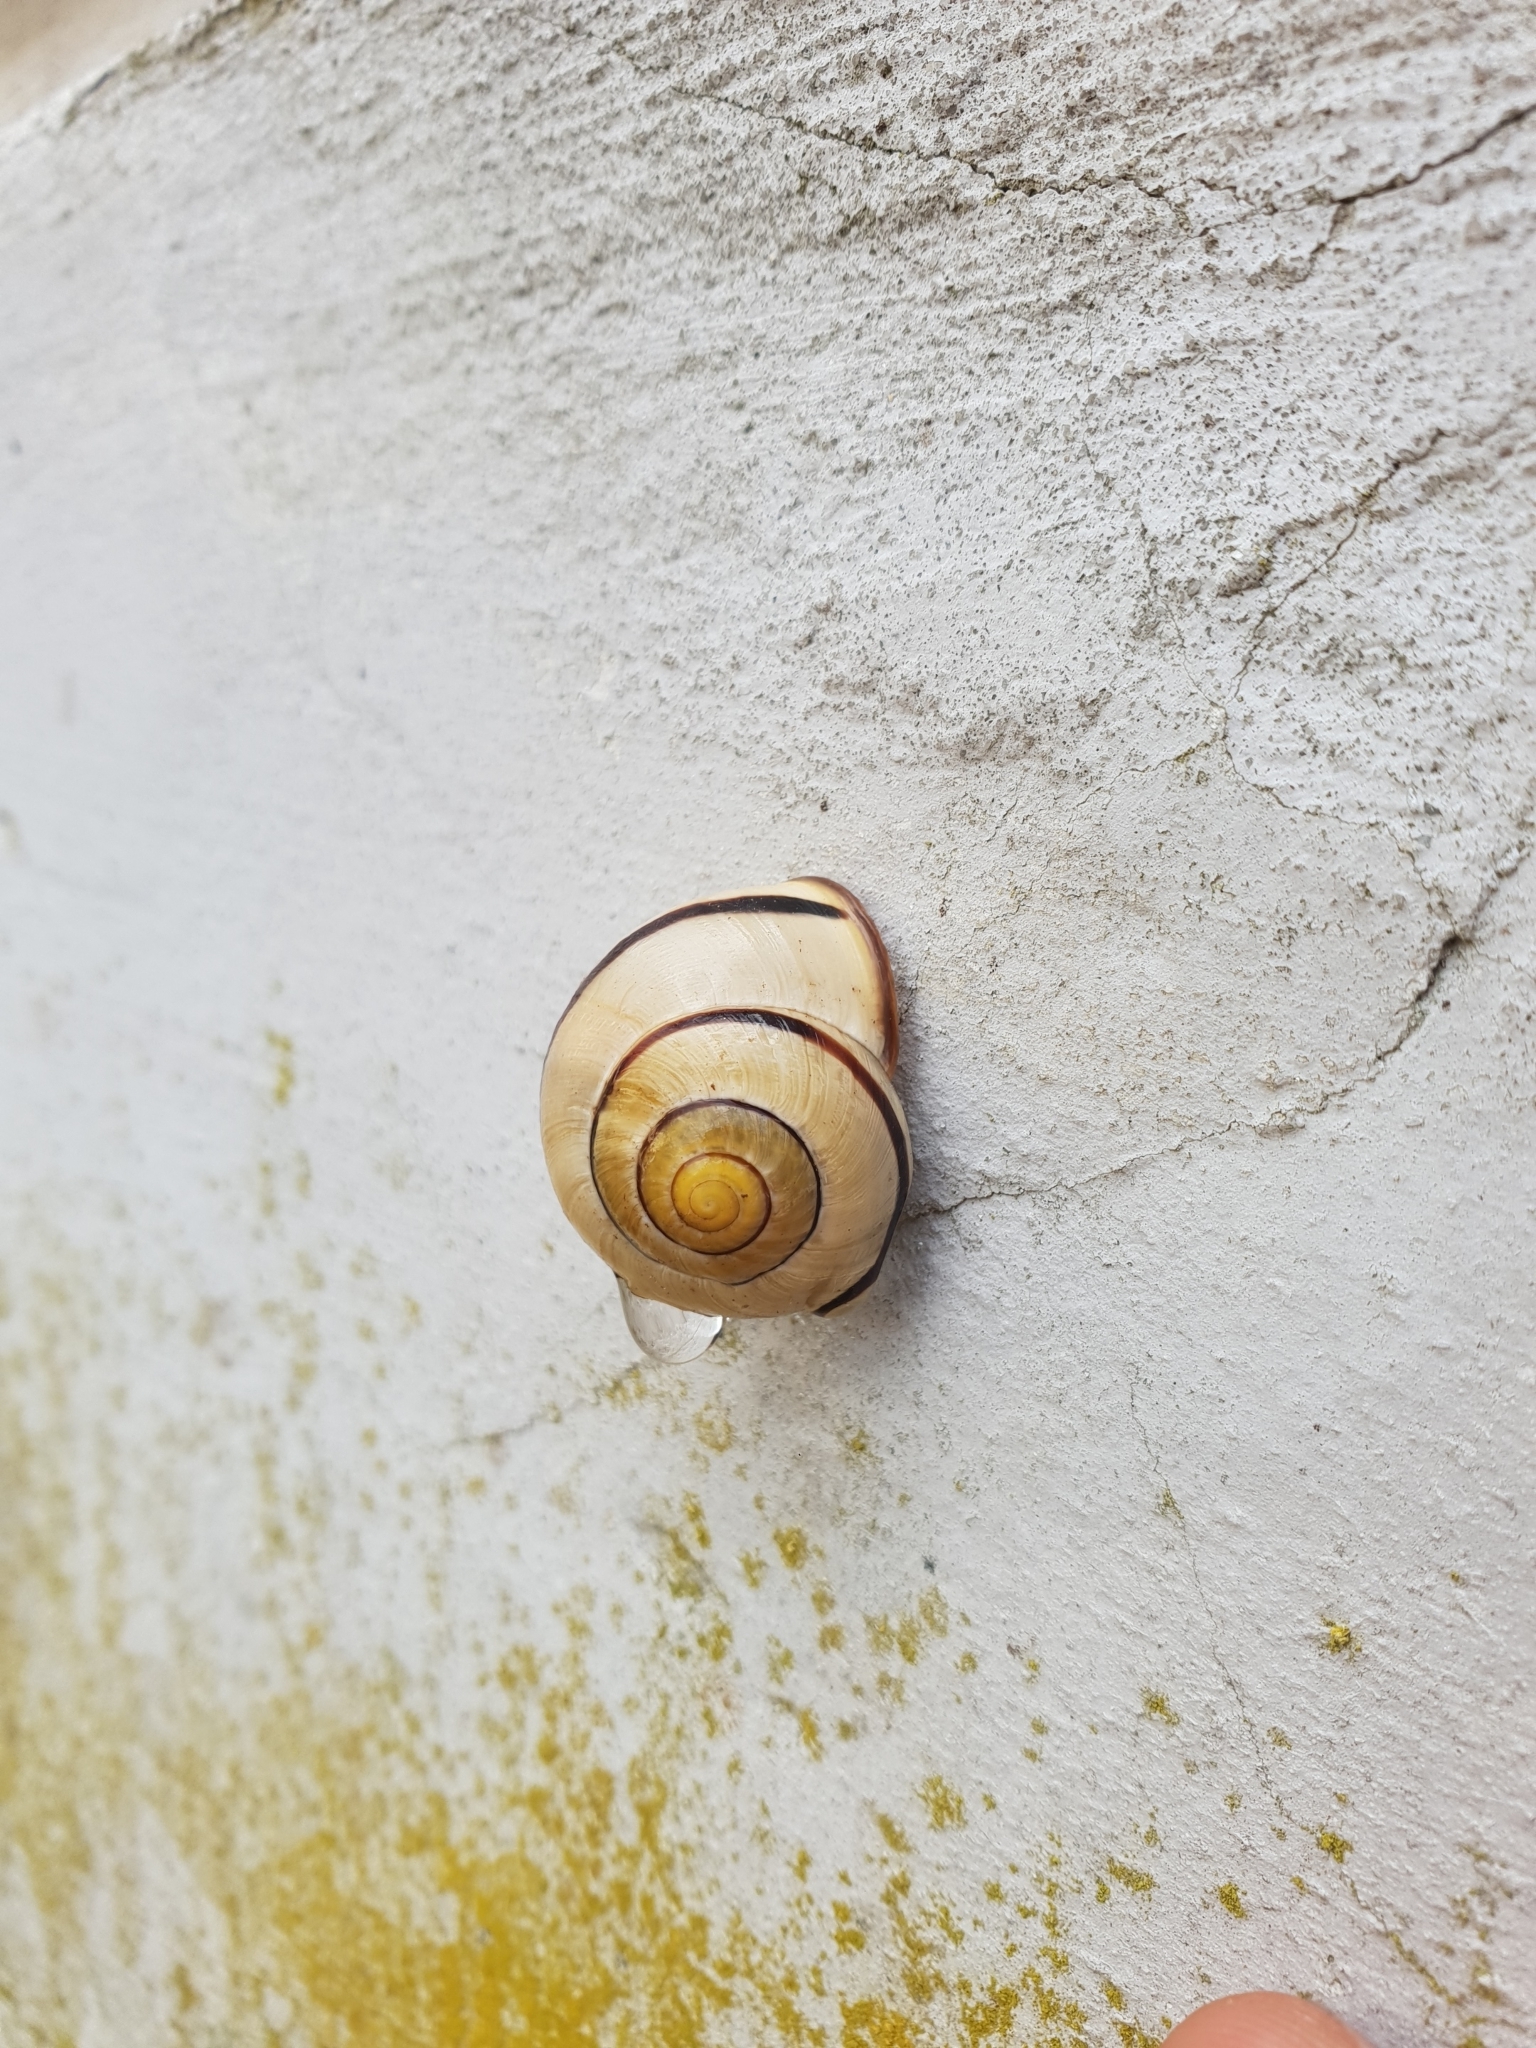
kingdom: Animalia
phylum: Mollusca
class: Gastropoda
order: Stylommatophora
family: Helicidae
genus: Cepaea
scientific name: Cepaea nemoralis
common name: Grovesnail
